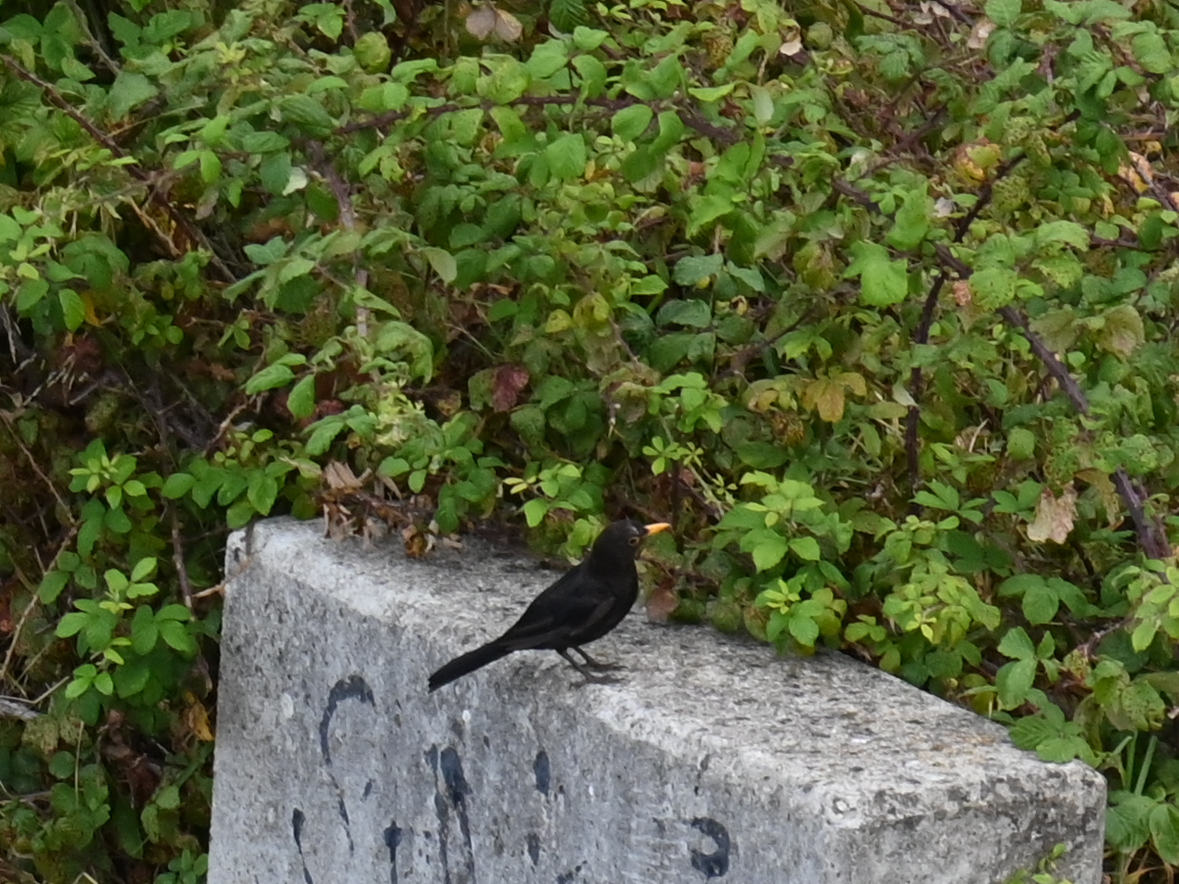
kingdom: Animalia
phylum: Chordata
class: Aves
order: Passeriformes
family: Turdidae
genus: Turdus
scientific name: Turdus merula
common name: Common blackbird
